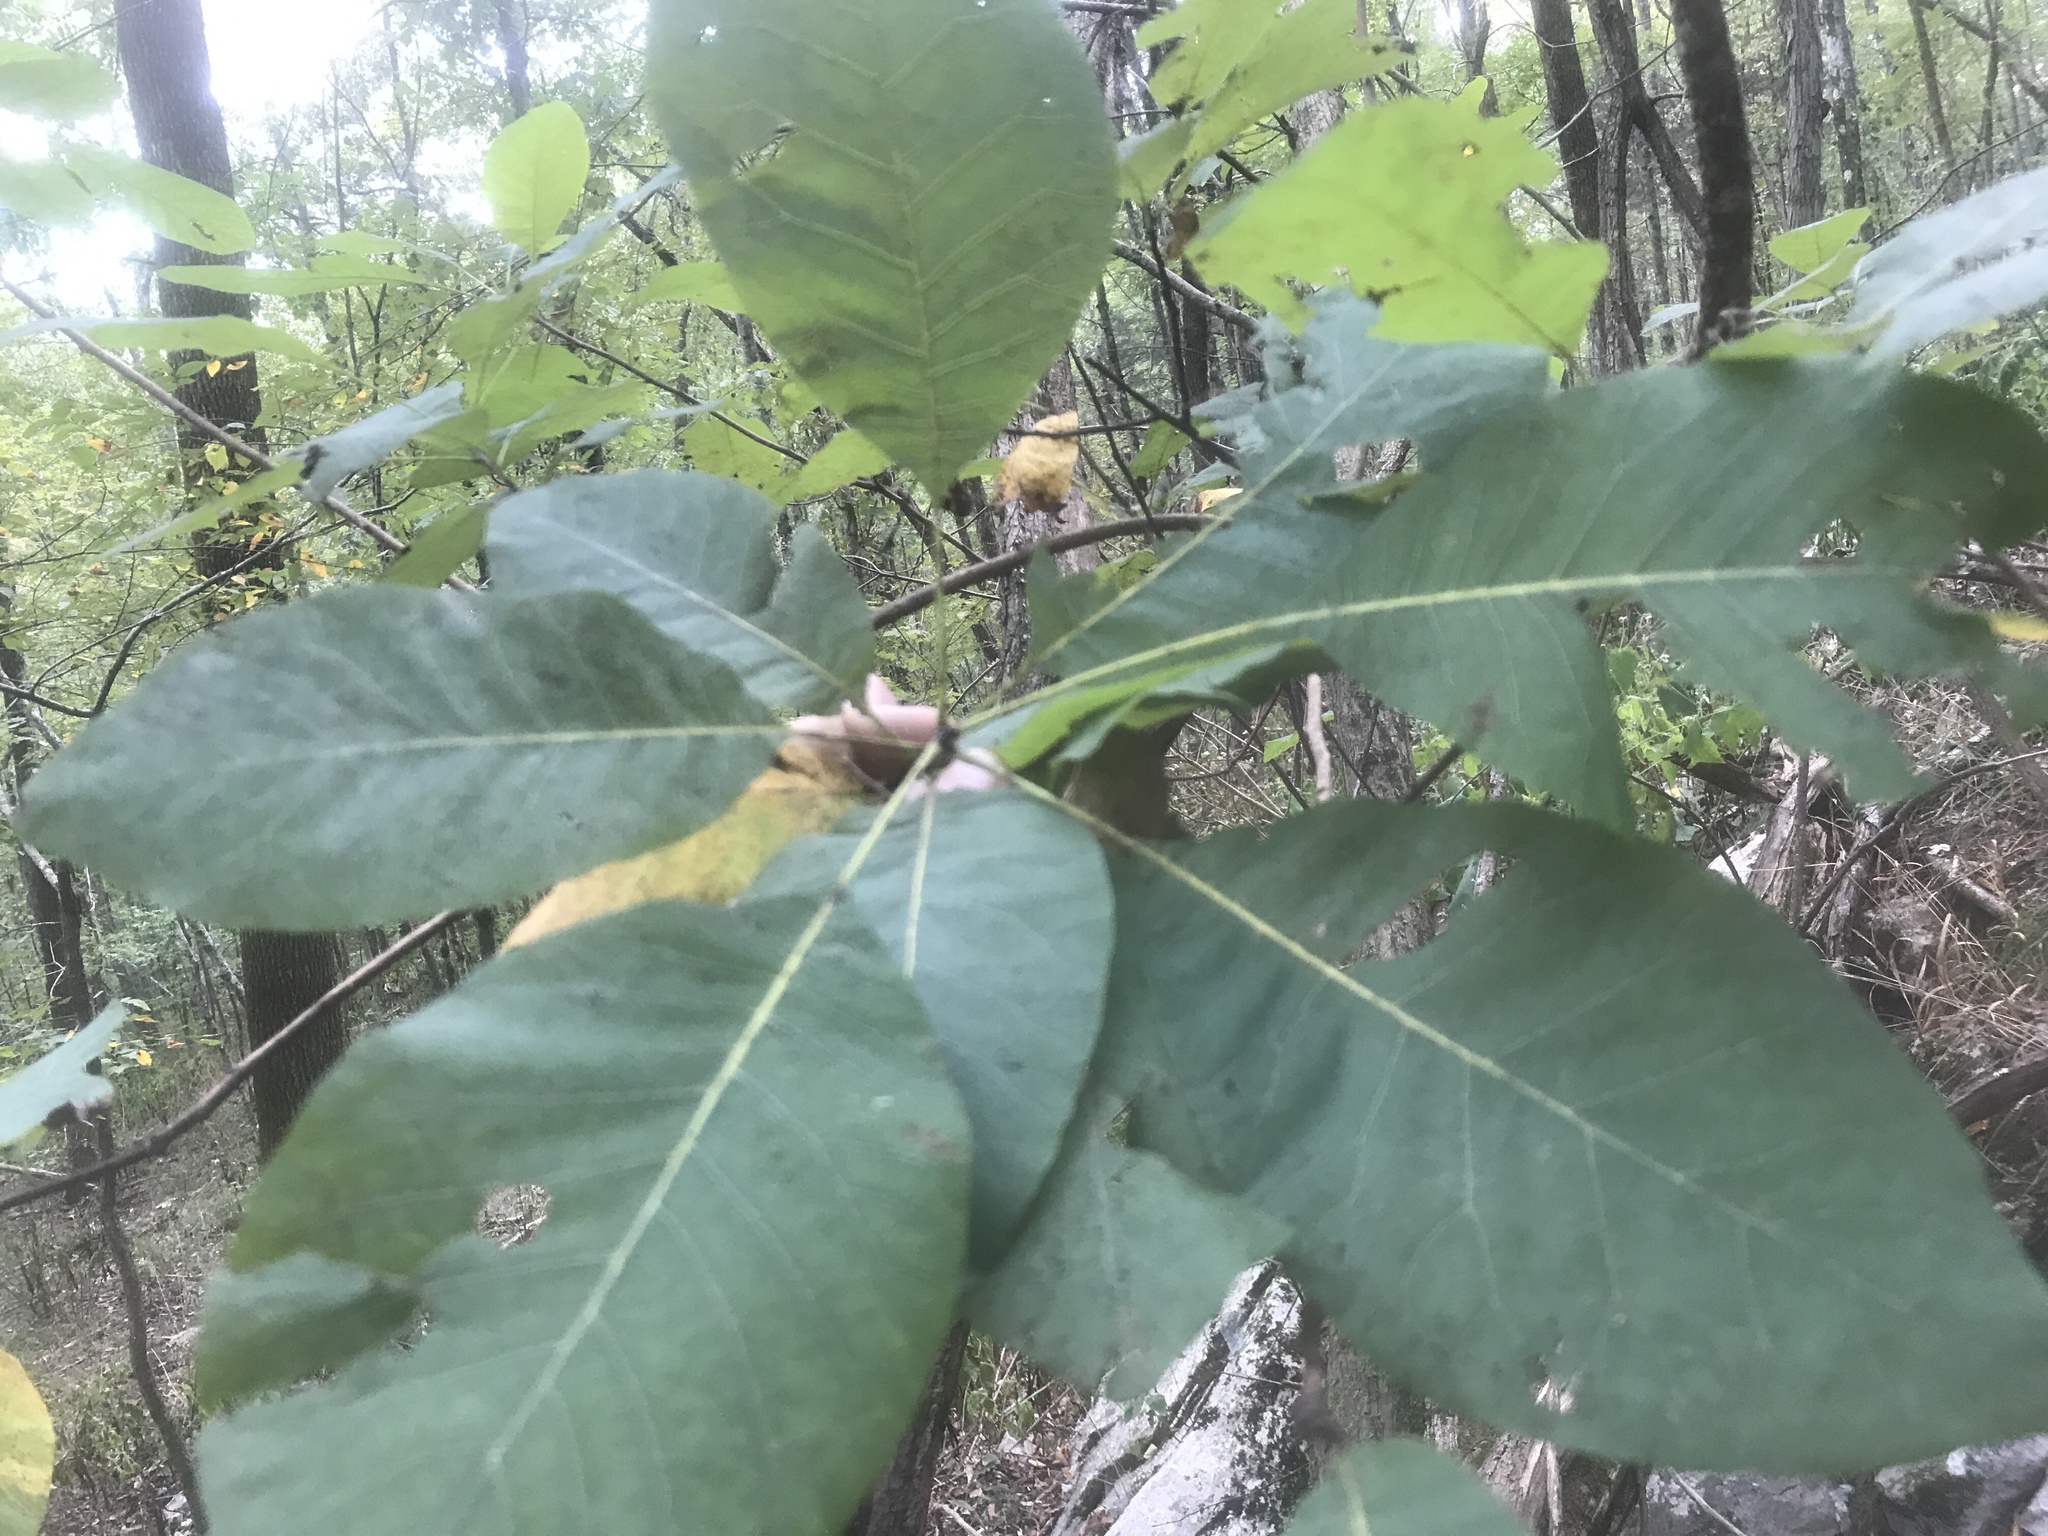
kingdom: Plantae
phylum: Tracheophyta
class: Magnoliopsida
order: Sapindales
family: Anacardiaceae
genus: Cotinus
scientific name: Cotinus obovatus
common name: Chittamwood
